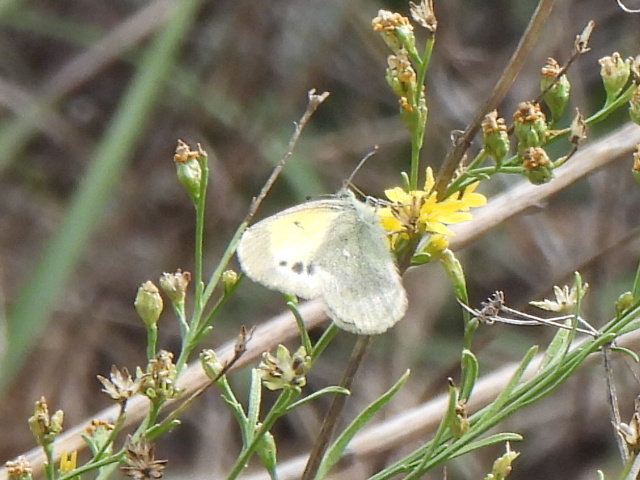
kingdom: Animalia
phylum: Arthropoda
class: Insecta
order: Lepidoptera
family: Pieridae
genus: Nathalis
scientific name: Nathalis iole
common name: Dainty sulphur
